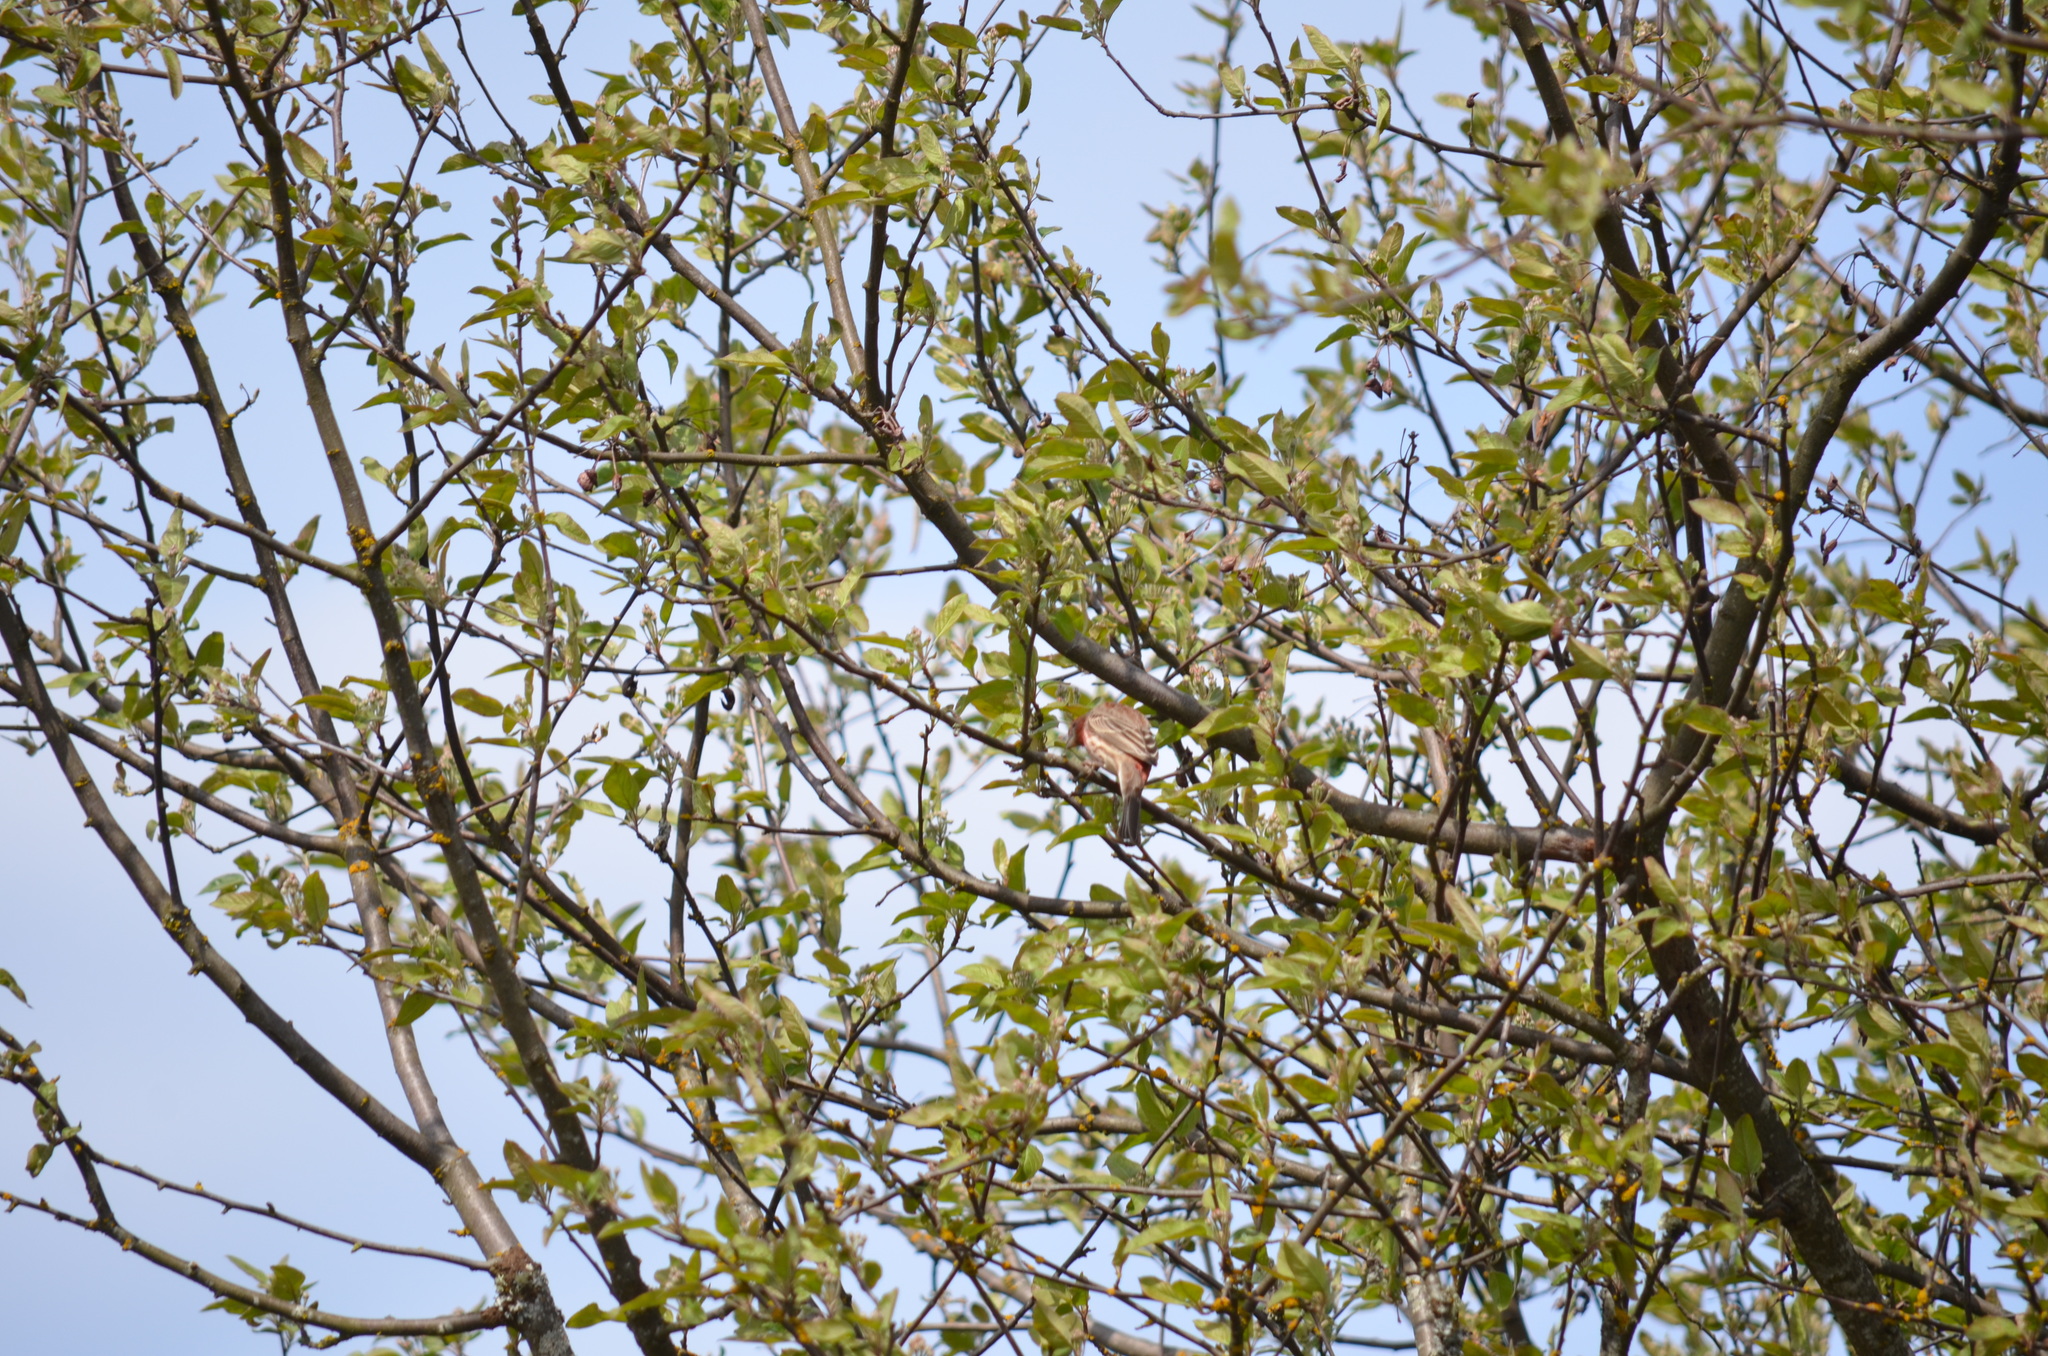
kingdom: Animalia
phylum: Chordata
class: Aves
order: Passeriformes
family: Fringillidae
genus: Haemorhous
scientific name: Haemorhous mexicanus
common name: House finch
